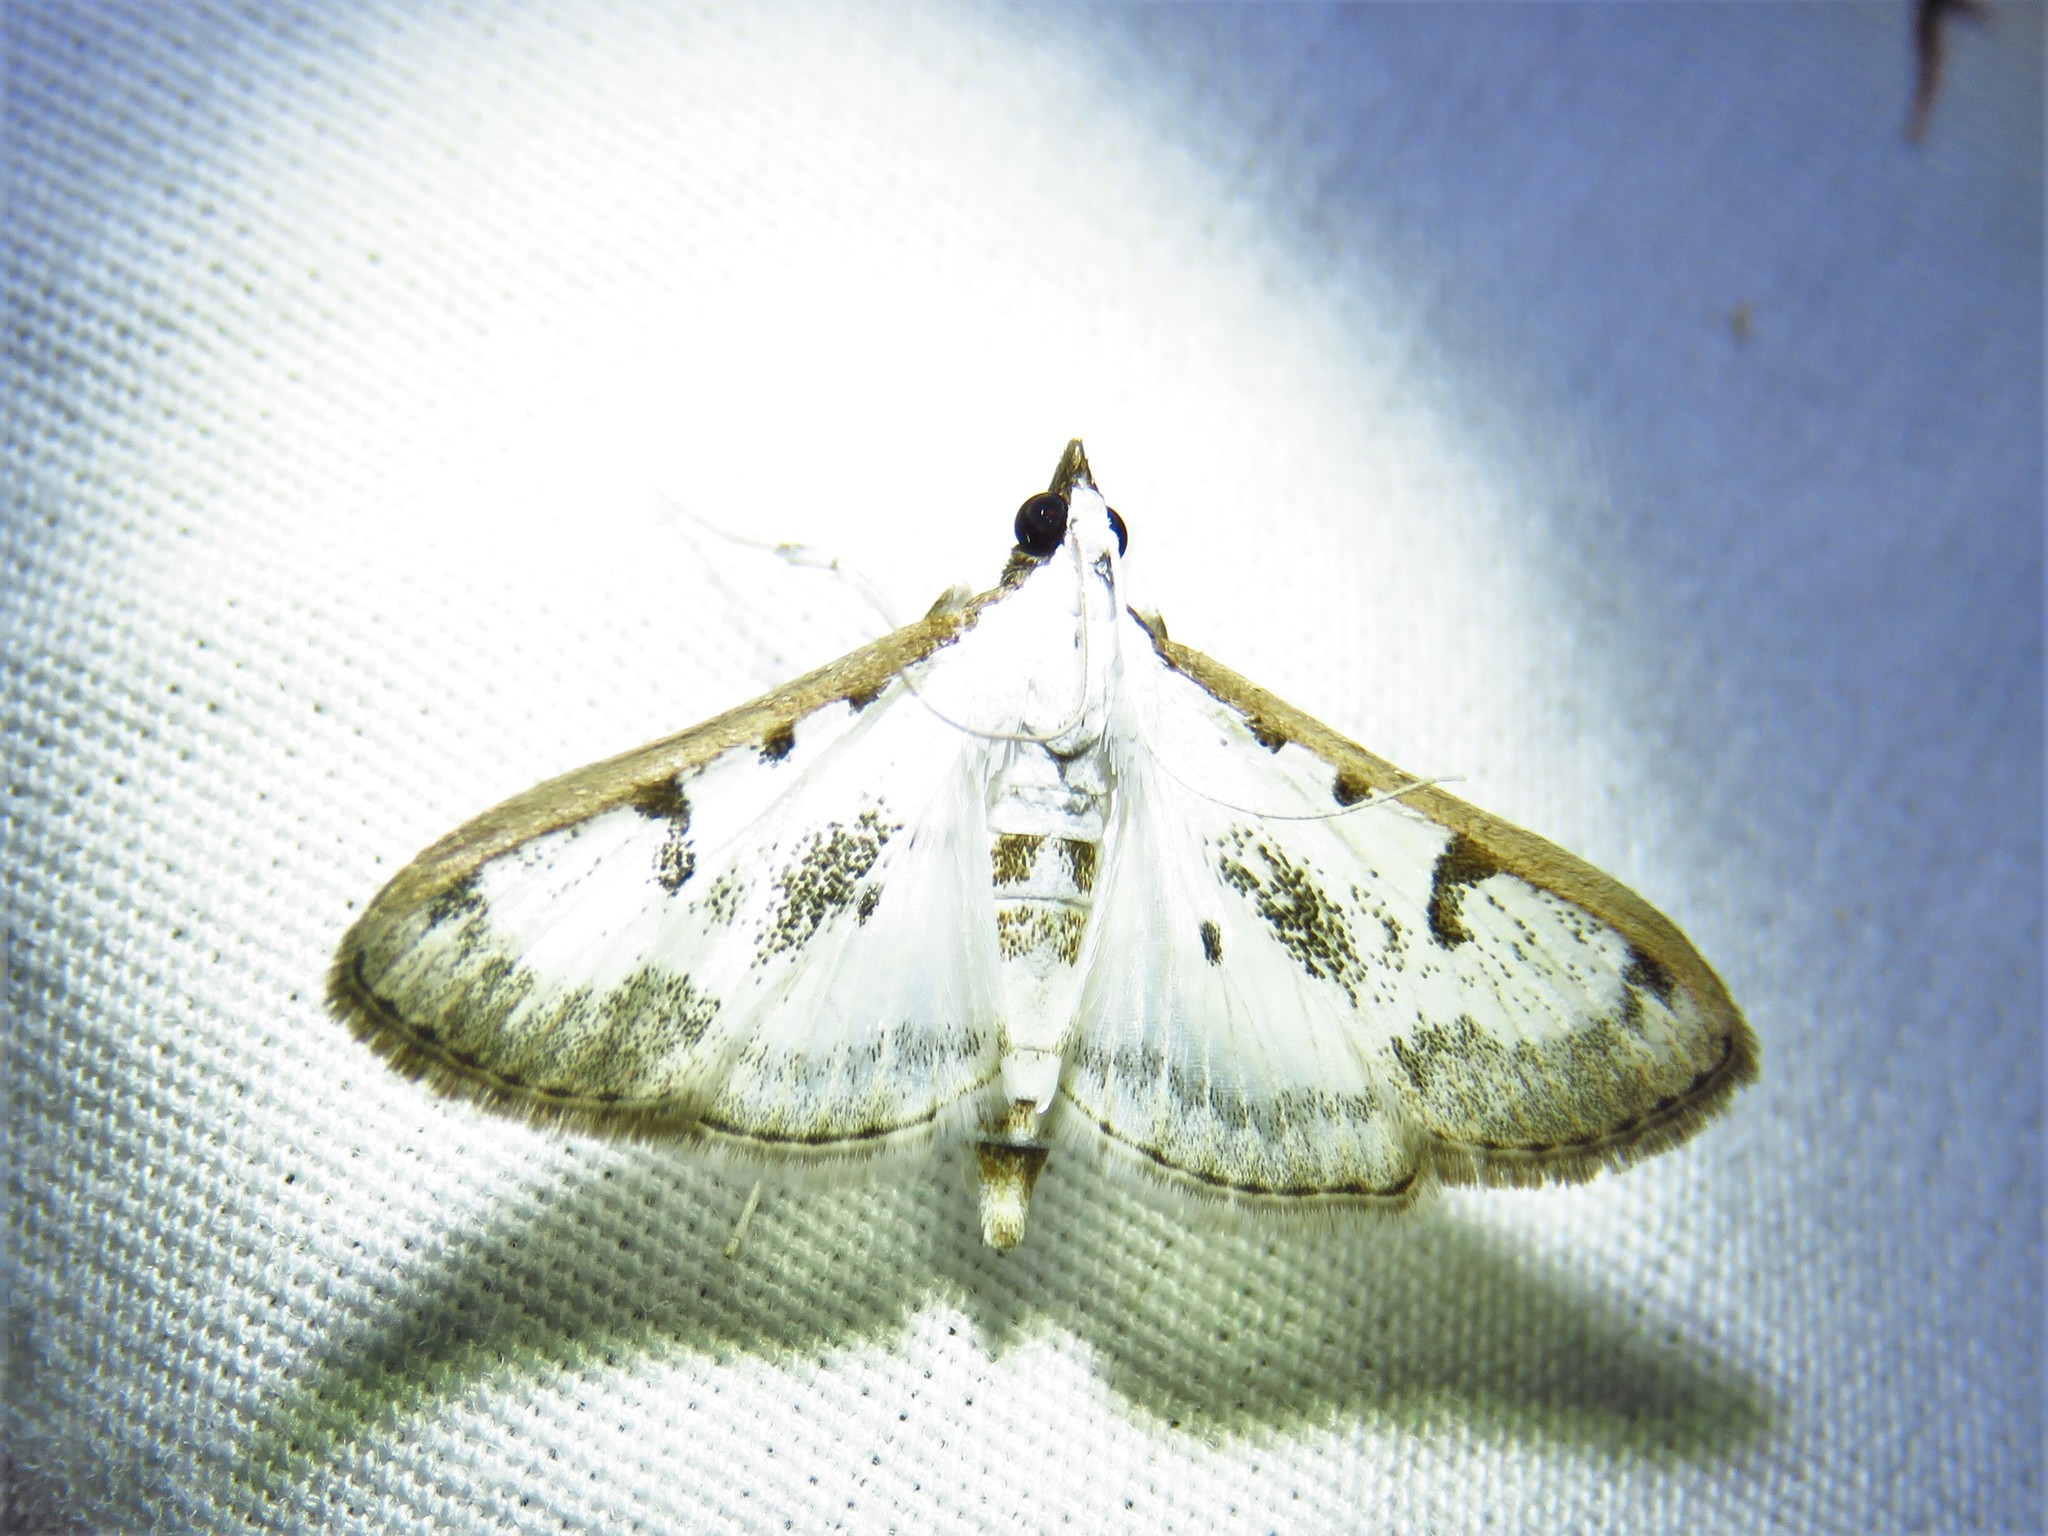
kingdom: Animalia
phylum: Arthropoda
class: Insecta
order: Lepidoptera
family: Crambidae
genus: Palpita
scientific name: Palpita gracilalis
